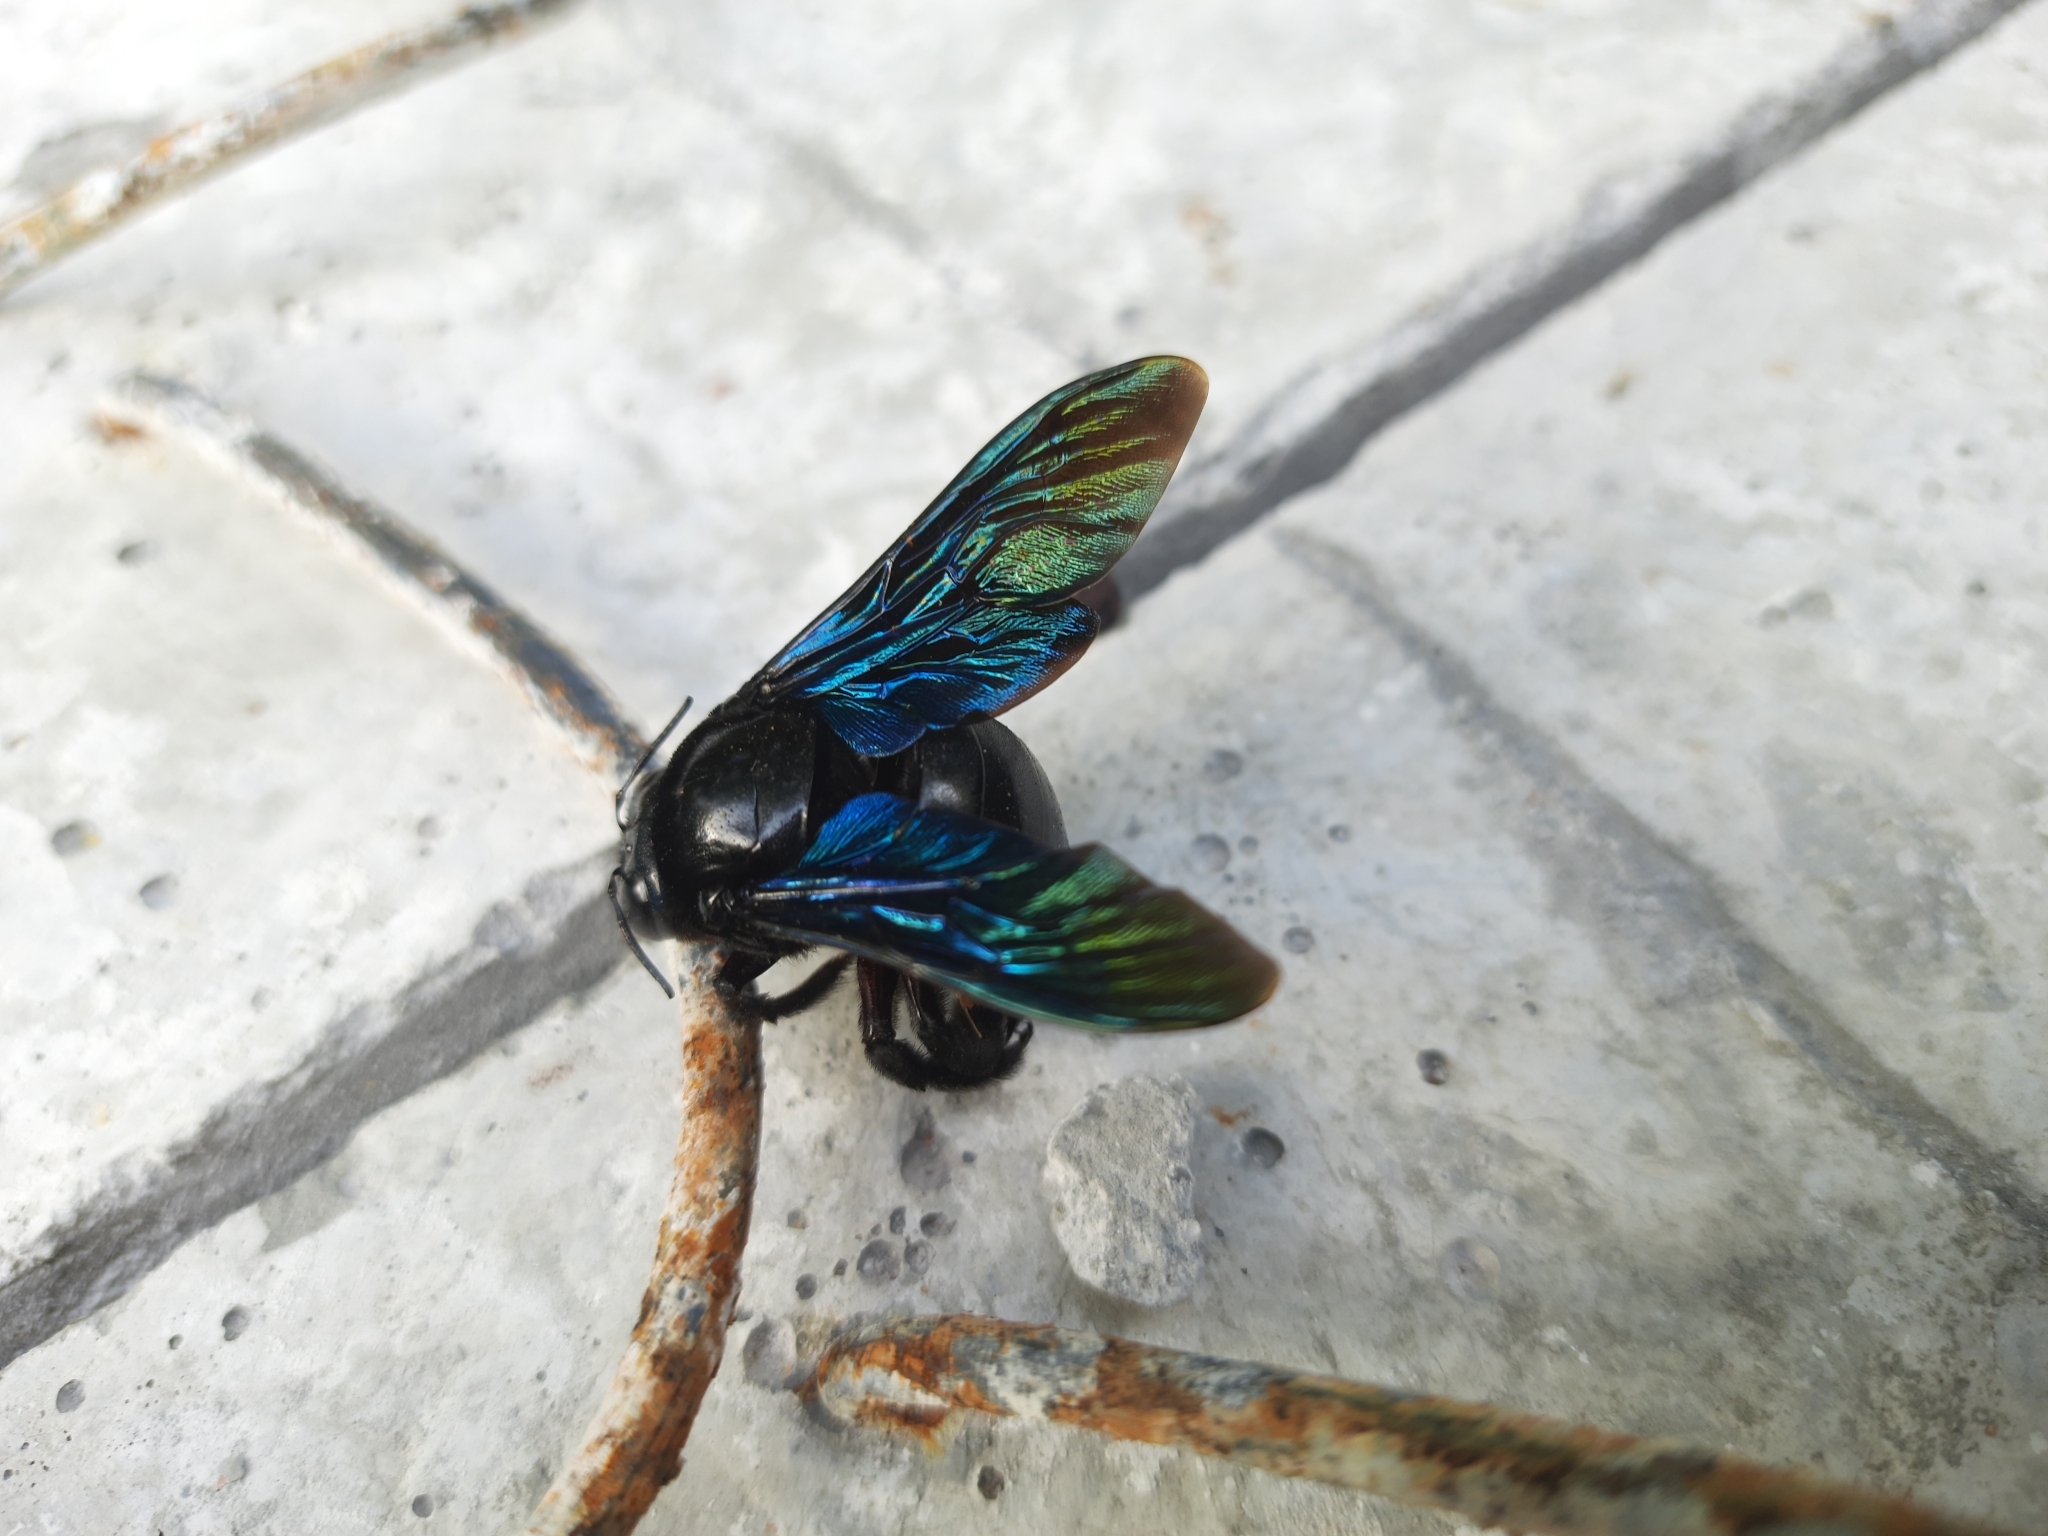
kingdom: Animalia
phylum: Arthropoda
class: Insecta
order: Hymenoptera
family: Apidae
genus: Xylocopa
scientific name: Xylocopa tenuiscapa
